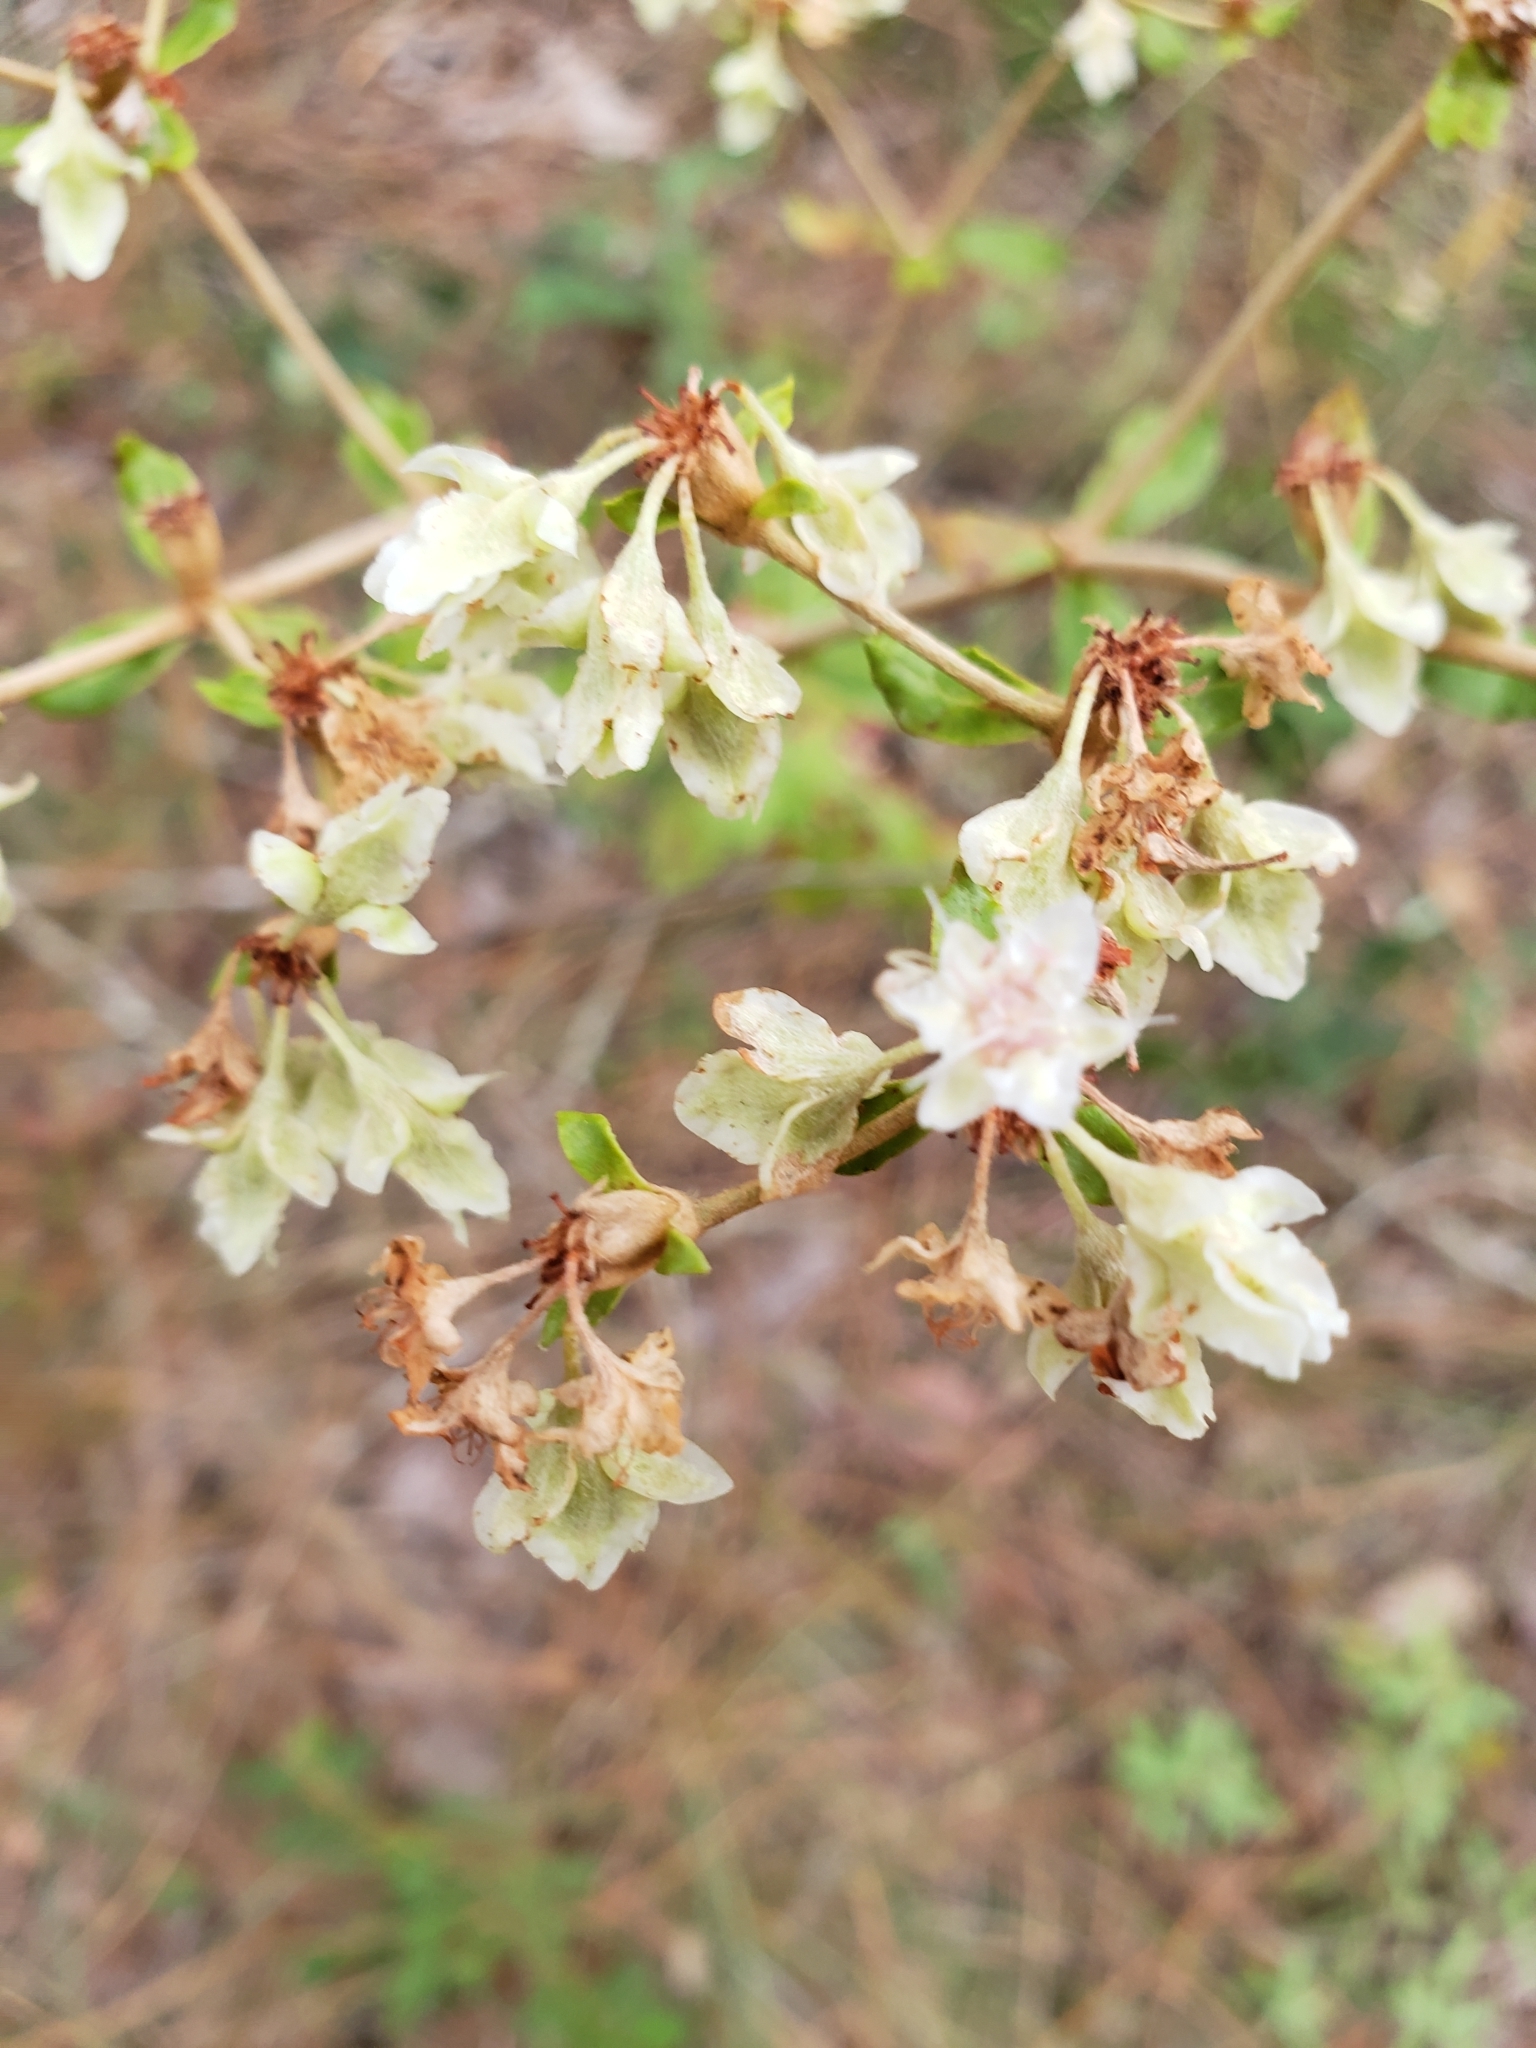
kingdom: Plantae
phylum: Tracheophyta
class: Magnoliopsida
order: Caryophyllales
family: Polygonaceae
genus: Eriogonum
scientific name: Eriogonum tomentosum
